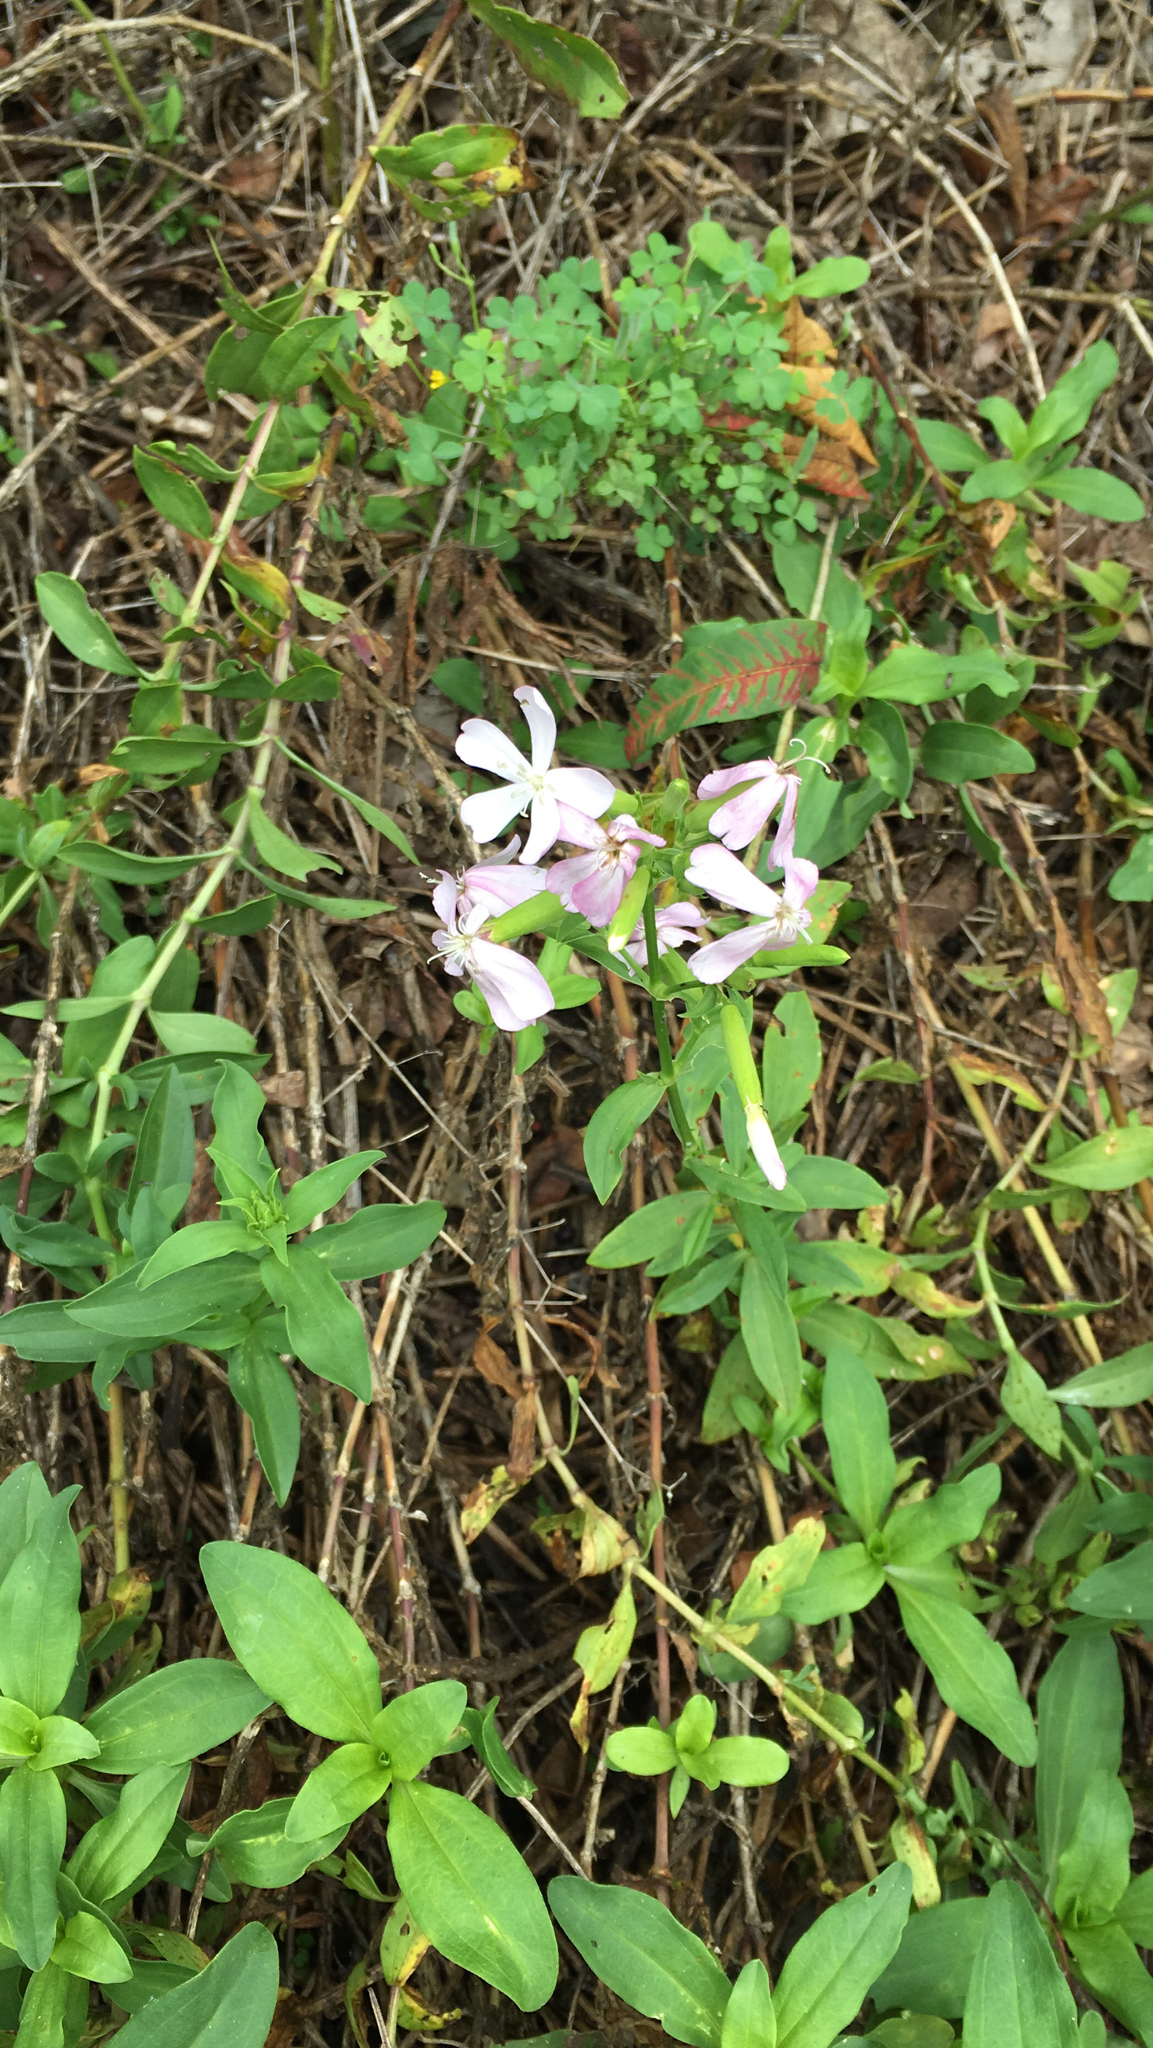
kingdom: Plantae
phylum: Tracheophyta
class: Magnoliopsida
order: Caryophyllales
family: Caryophyllaceae
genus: Saponaria
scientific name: Saponaria officinalis
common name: Soapwort
